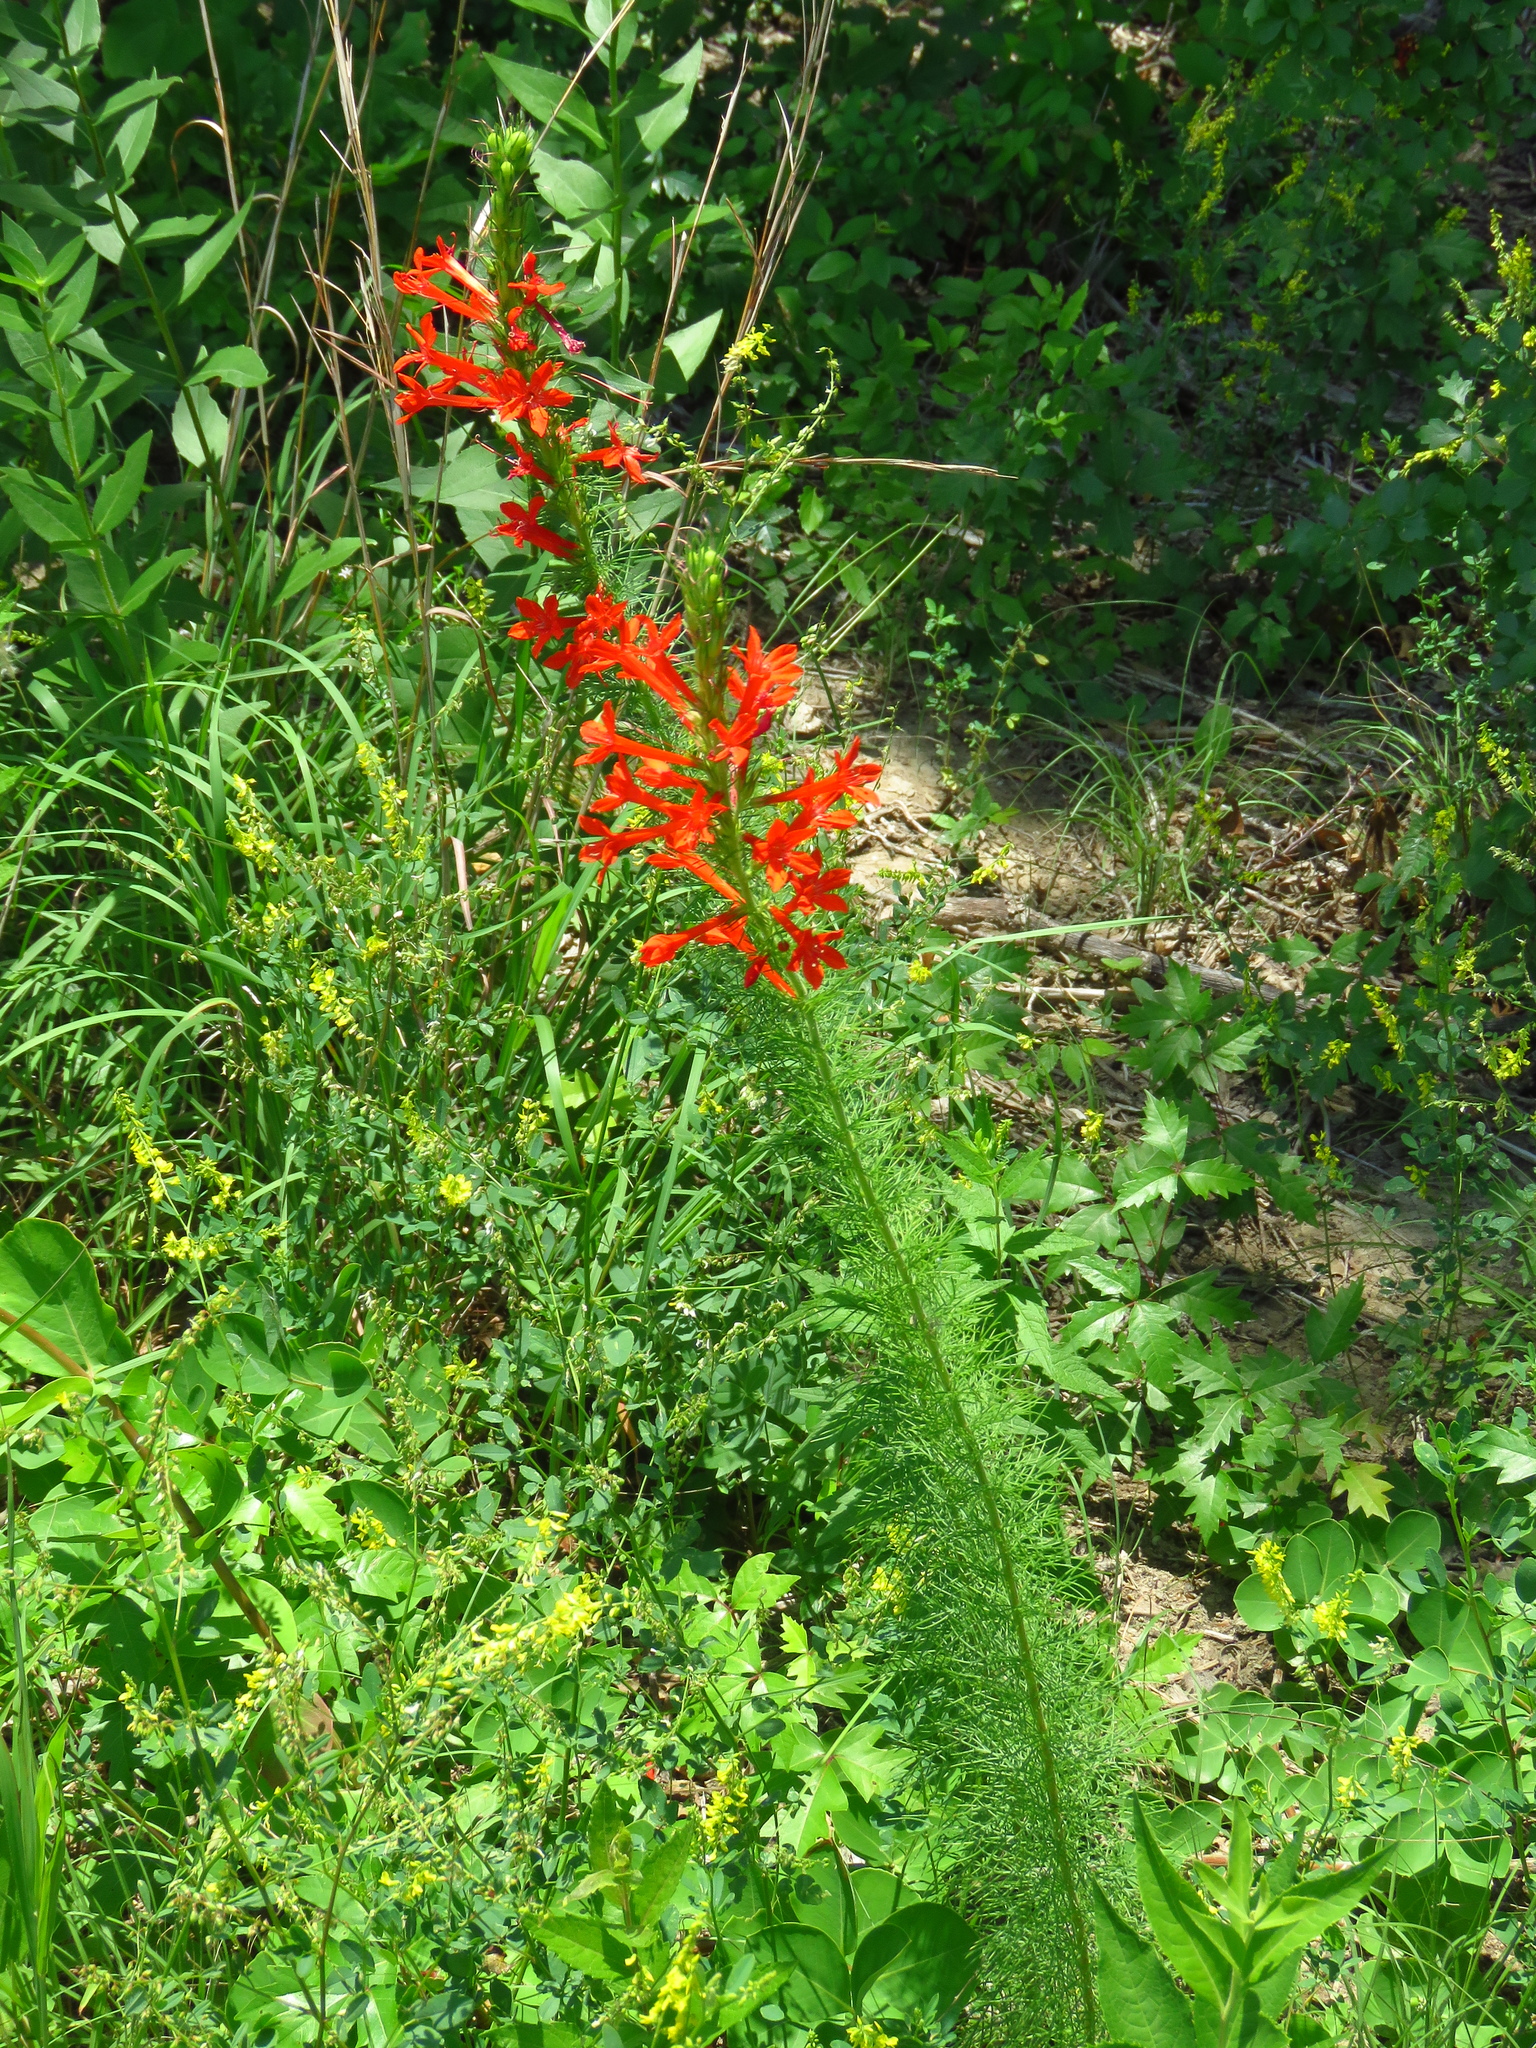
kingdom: Plantae
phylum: Tracheophyta
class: Magnoliopsida
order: Ericales
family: Polemoniaceae
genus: Ipomopsis
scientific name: Ipomopsis rubra
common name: Skyrocket
